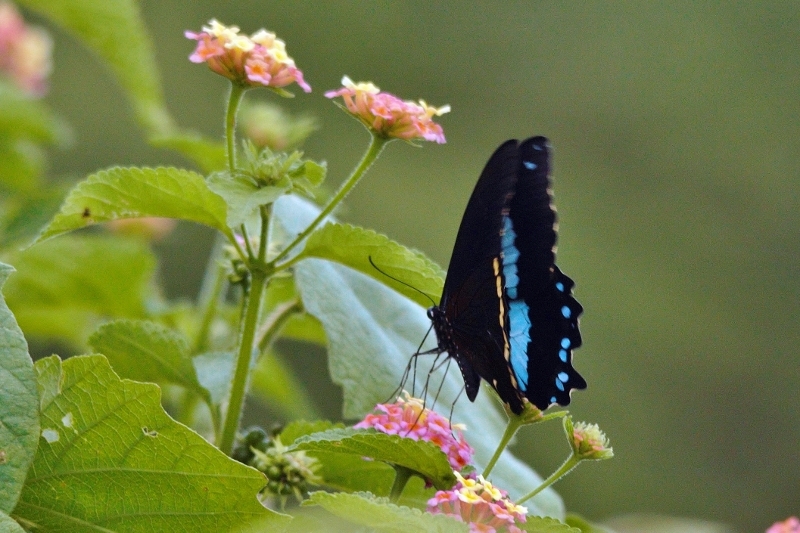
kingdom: Animalia
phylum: Arthropoda
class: Insecta
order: Lepidoptera
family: Papilionidae
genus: Papilio
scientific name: Papilio nireus
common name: Greenbanded swallowtail
